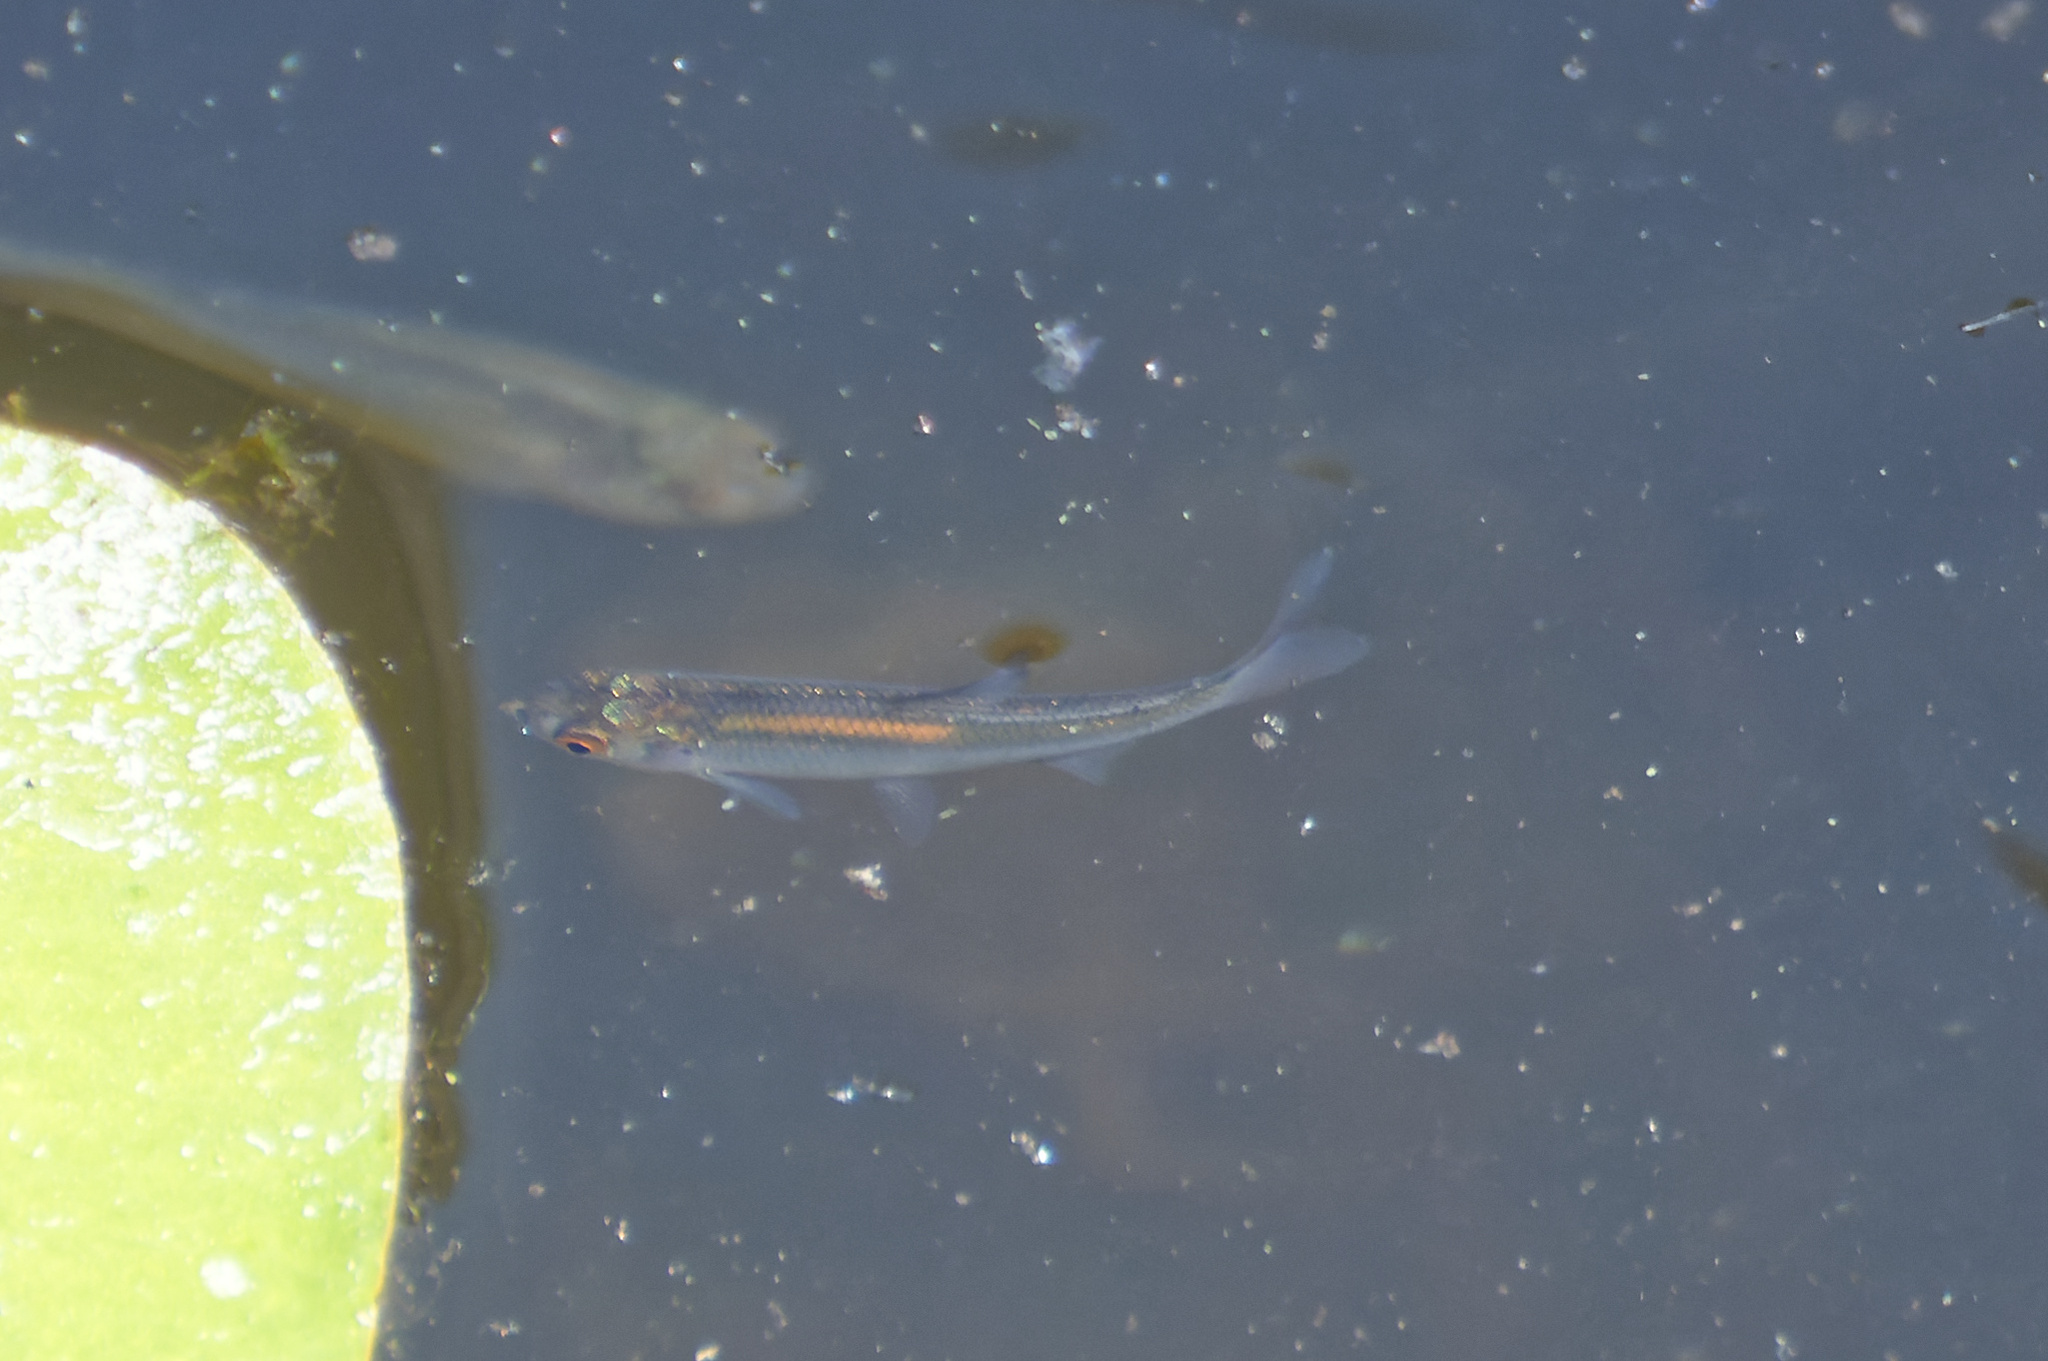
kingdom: Animalia
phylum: Chordata
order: Cypriniformes
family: Cyprinidae
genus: Rutilus
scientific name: Rutilus rutilus
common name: Roach
